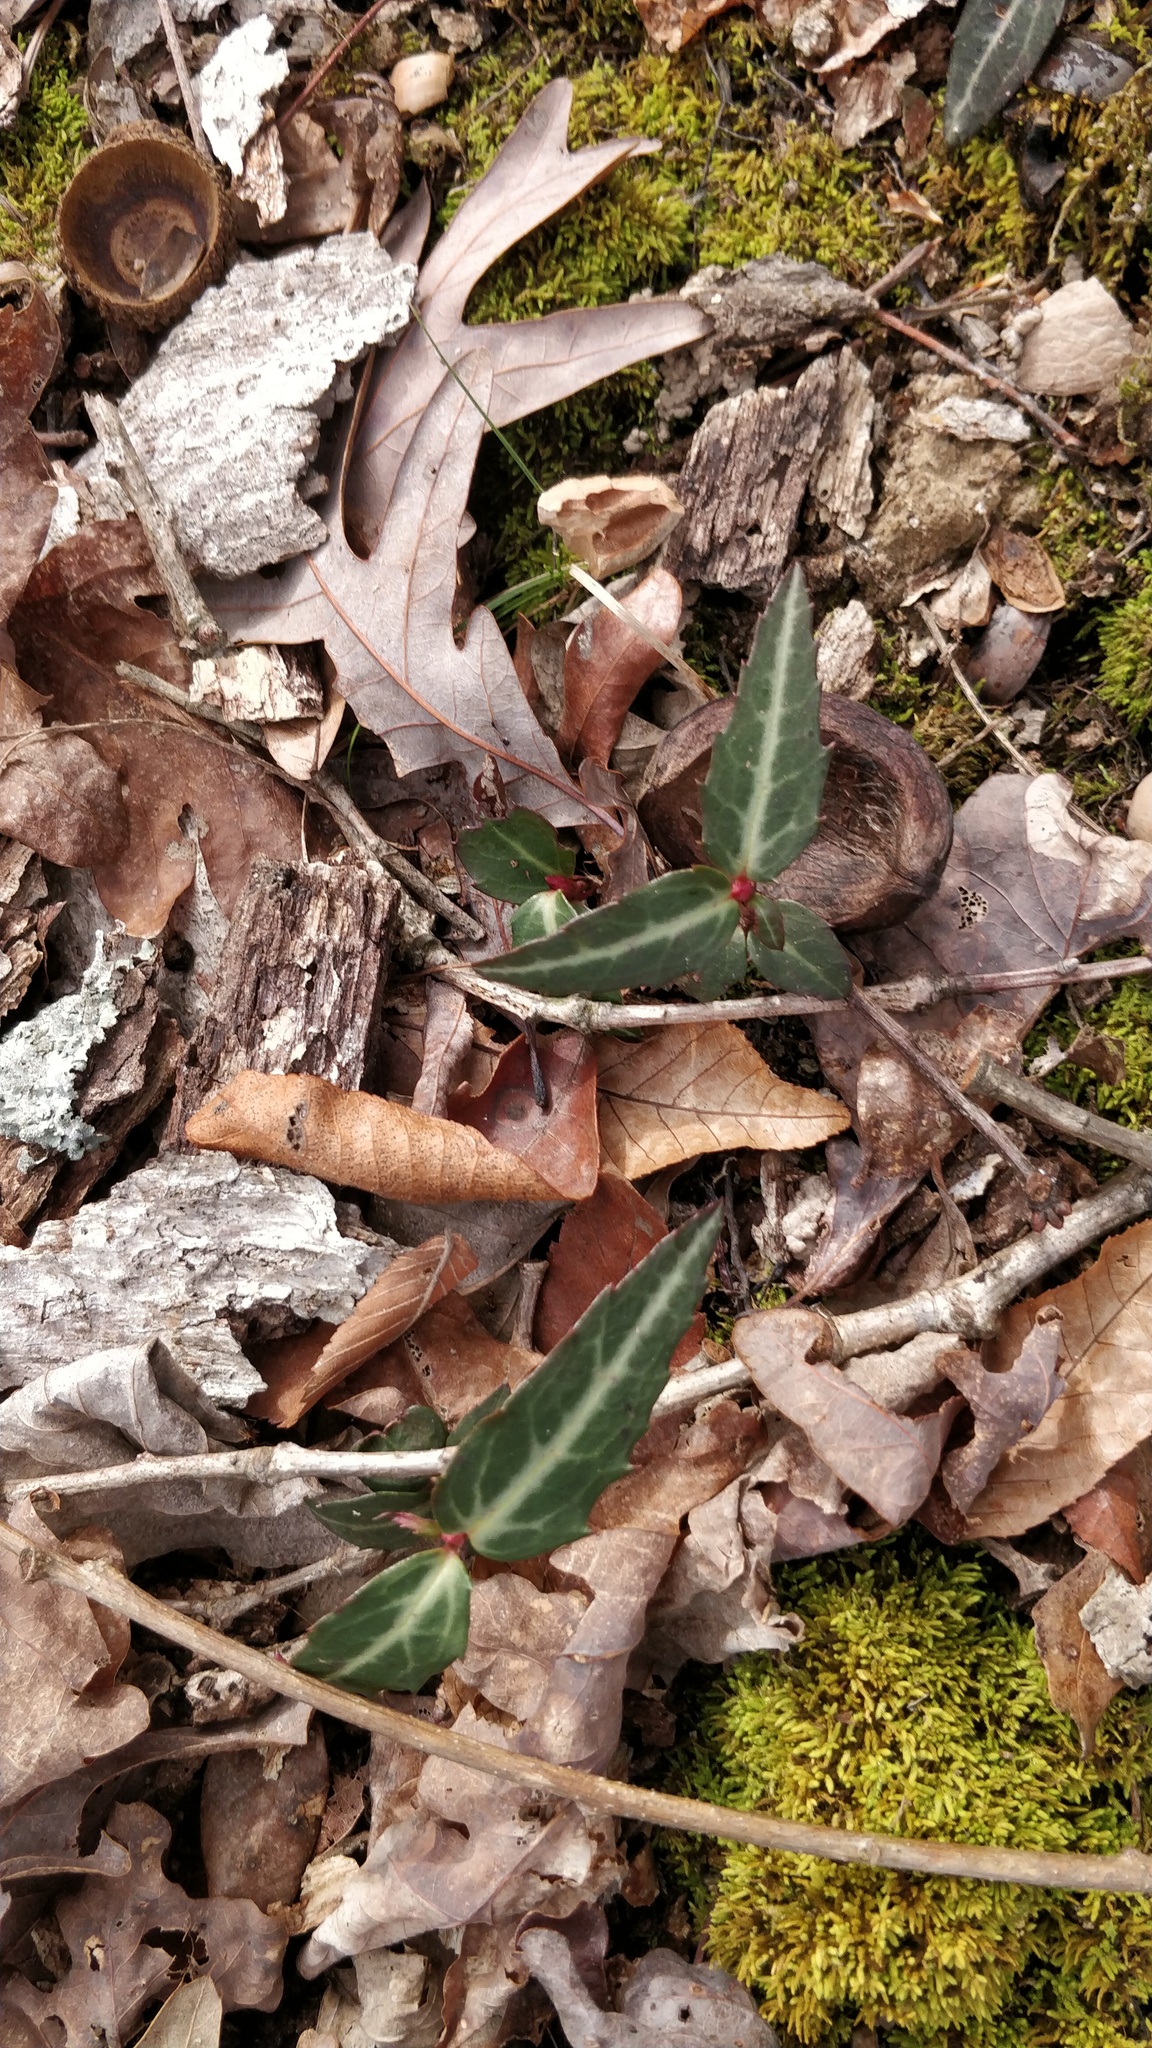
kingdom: Plantae
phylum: Tracheophyta
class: Magnoliopsida
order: Ericales
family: Ericaceae
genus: Chimaphila
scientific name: Chimaphila maculata
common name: Spotted pipsissewa
